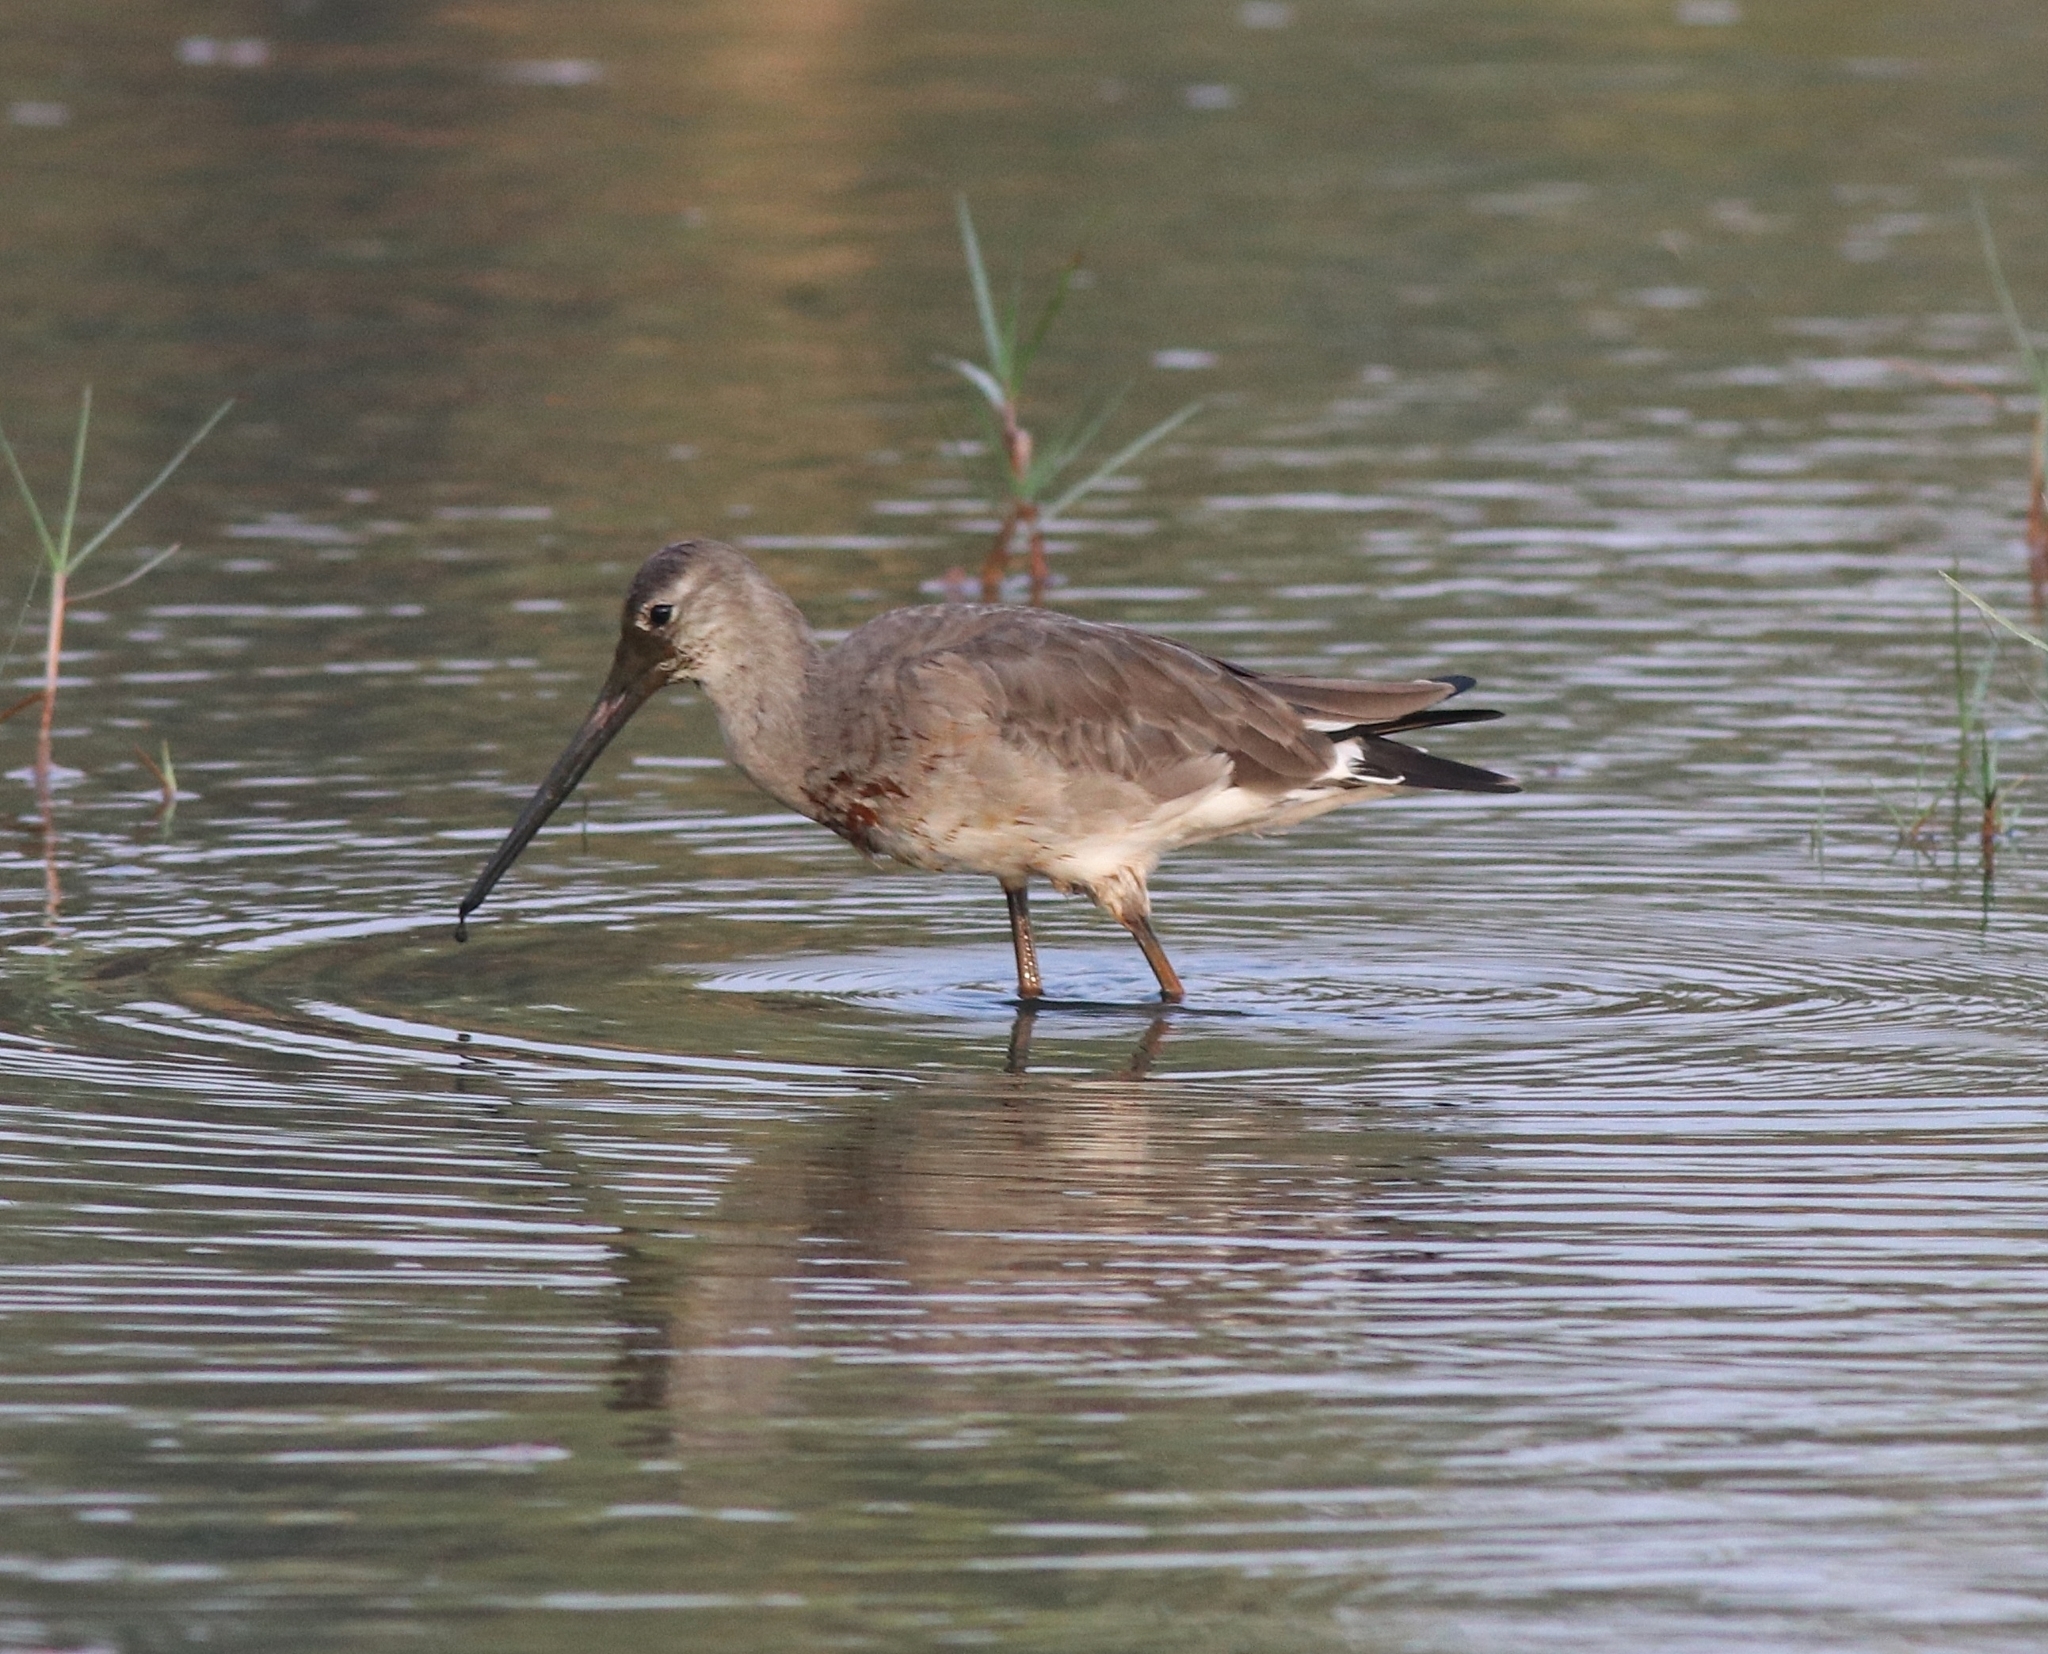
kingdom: Animalia
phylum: Chordata
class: Aves
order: Charadriiformes
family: Scolopacidae
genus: Limosa
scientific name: Limosa limosa
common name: Black-tailed godwit
